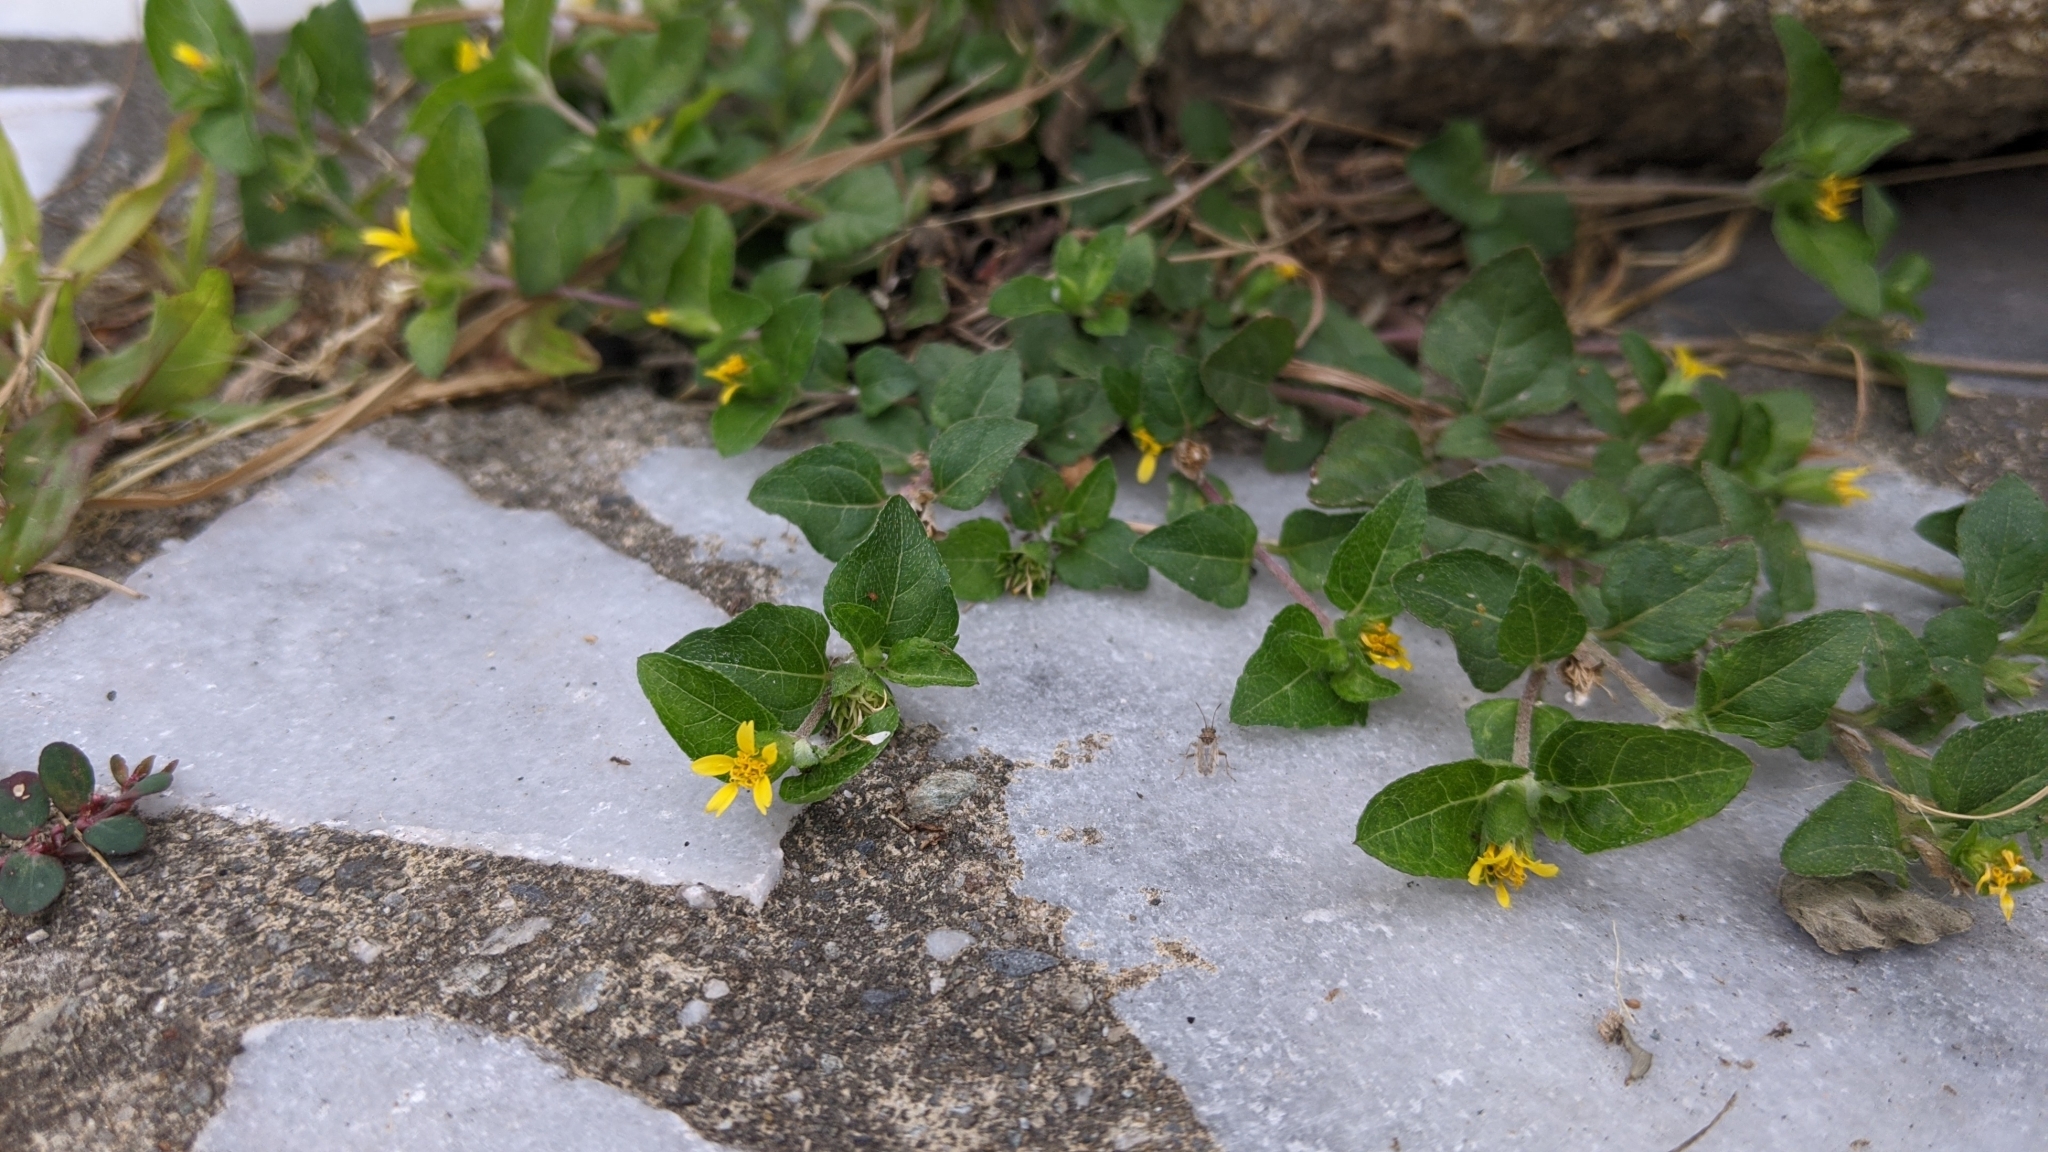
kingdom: Plantae
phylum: Tracheophyta
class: Magnoliopsida
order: Asterales
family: Asteraceae
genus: Calyptocarpus
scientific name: Calyptocarpus vialis
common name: Straggler daisy
